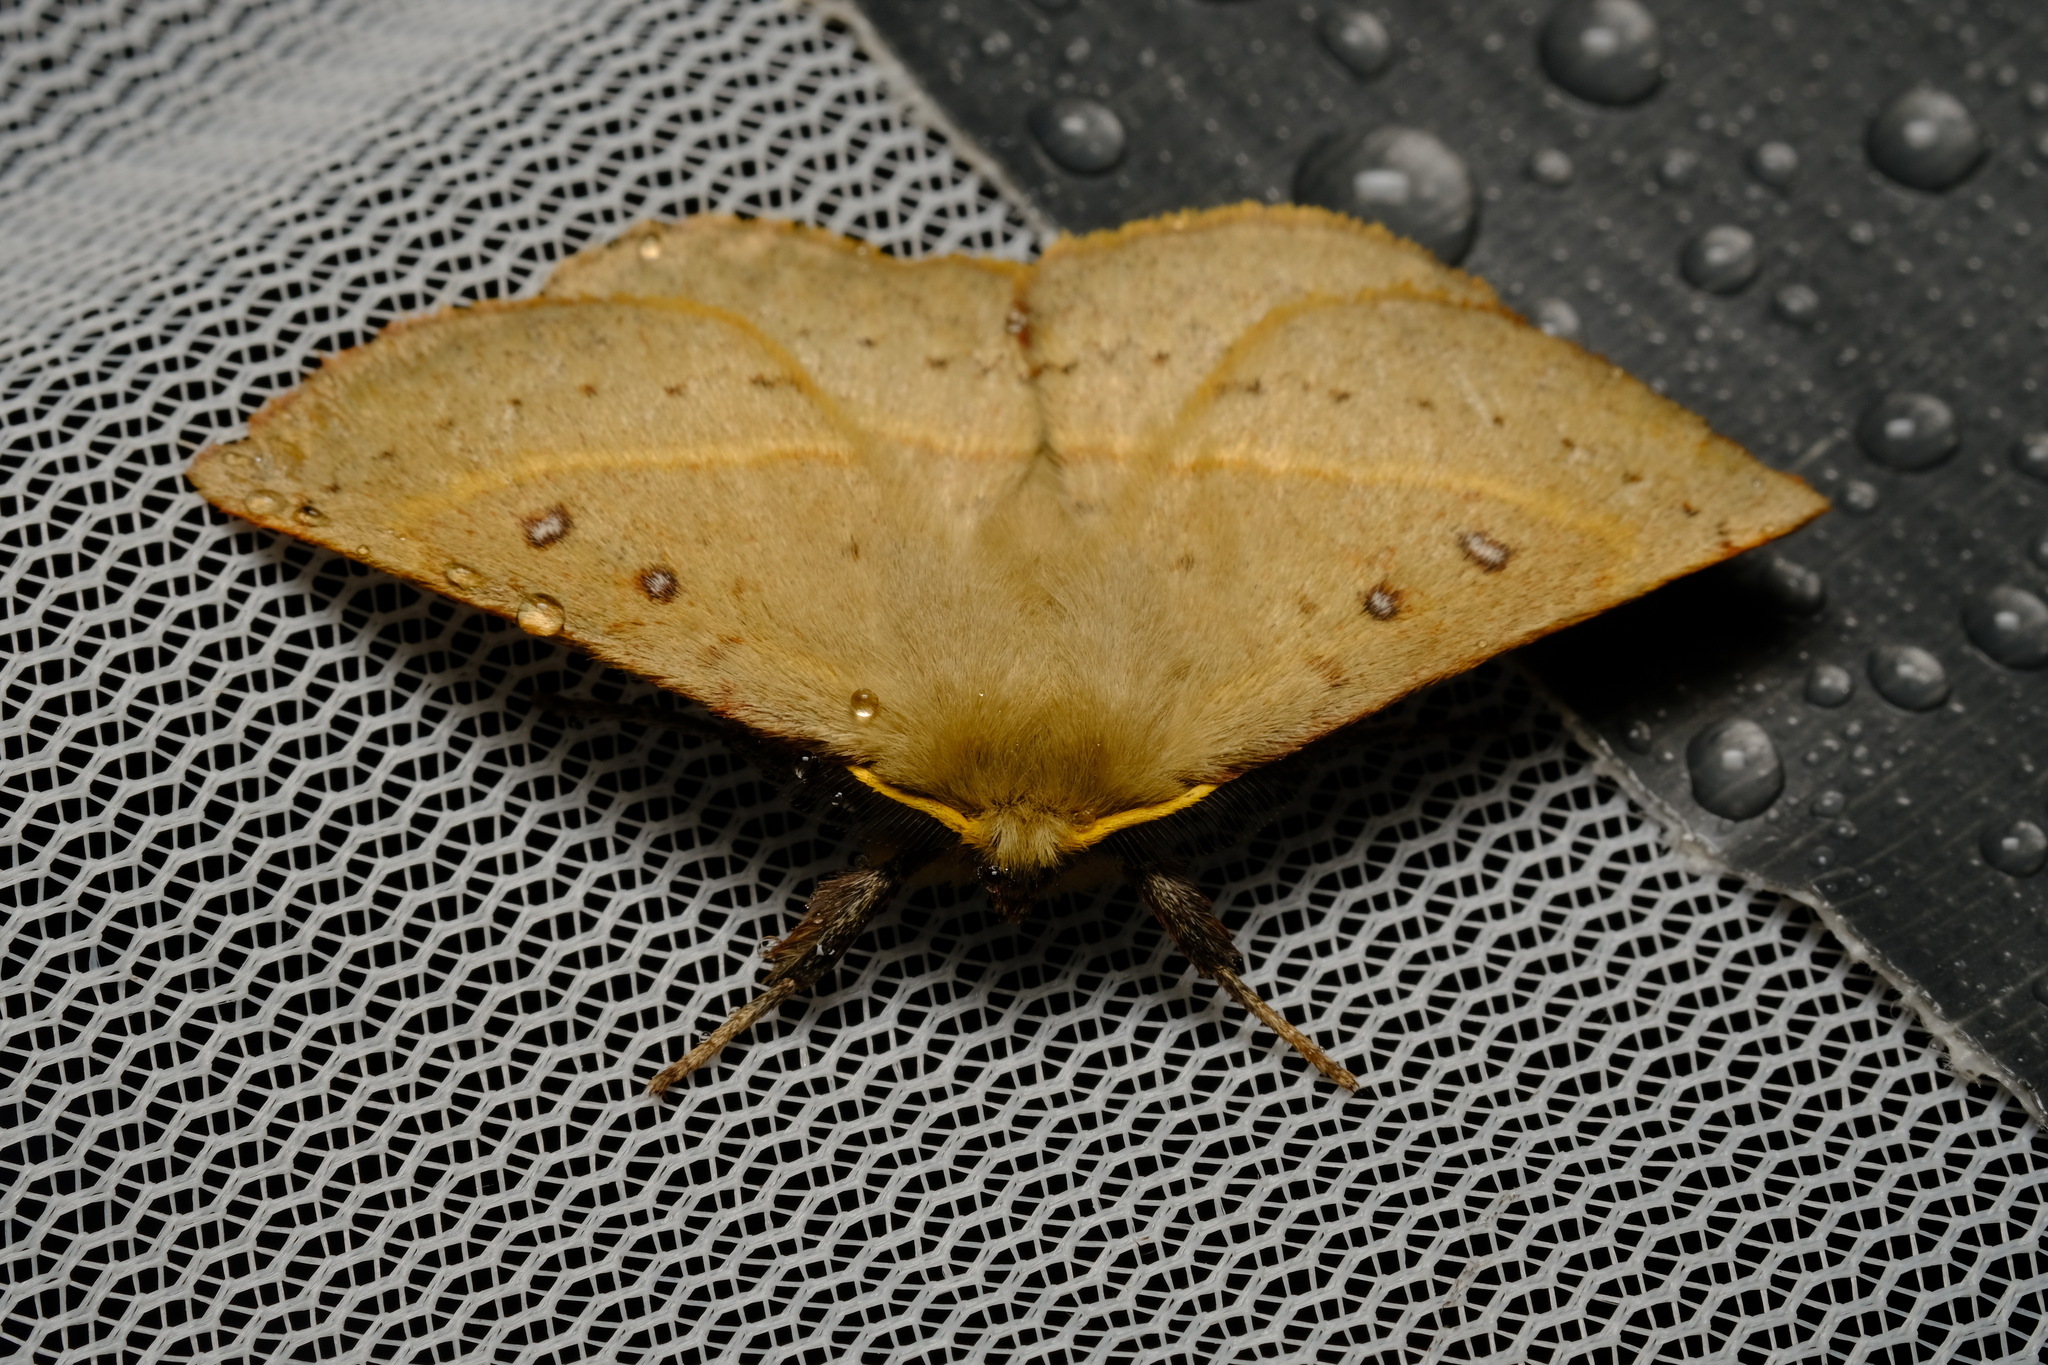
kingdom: Animalia
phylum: Arthropoda
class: Insecta
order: Lepidoptera
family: Anthelidae
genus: Anthela
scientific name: Anthela acuta
